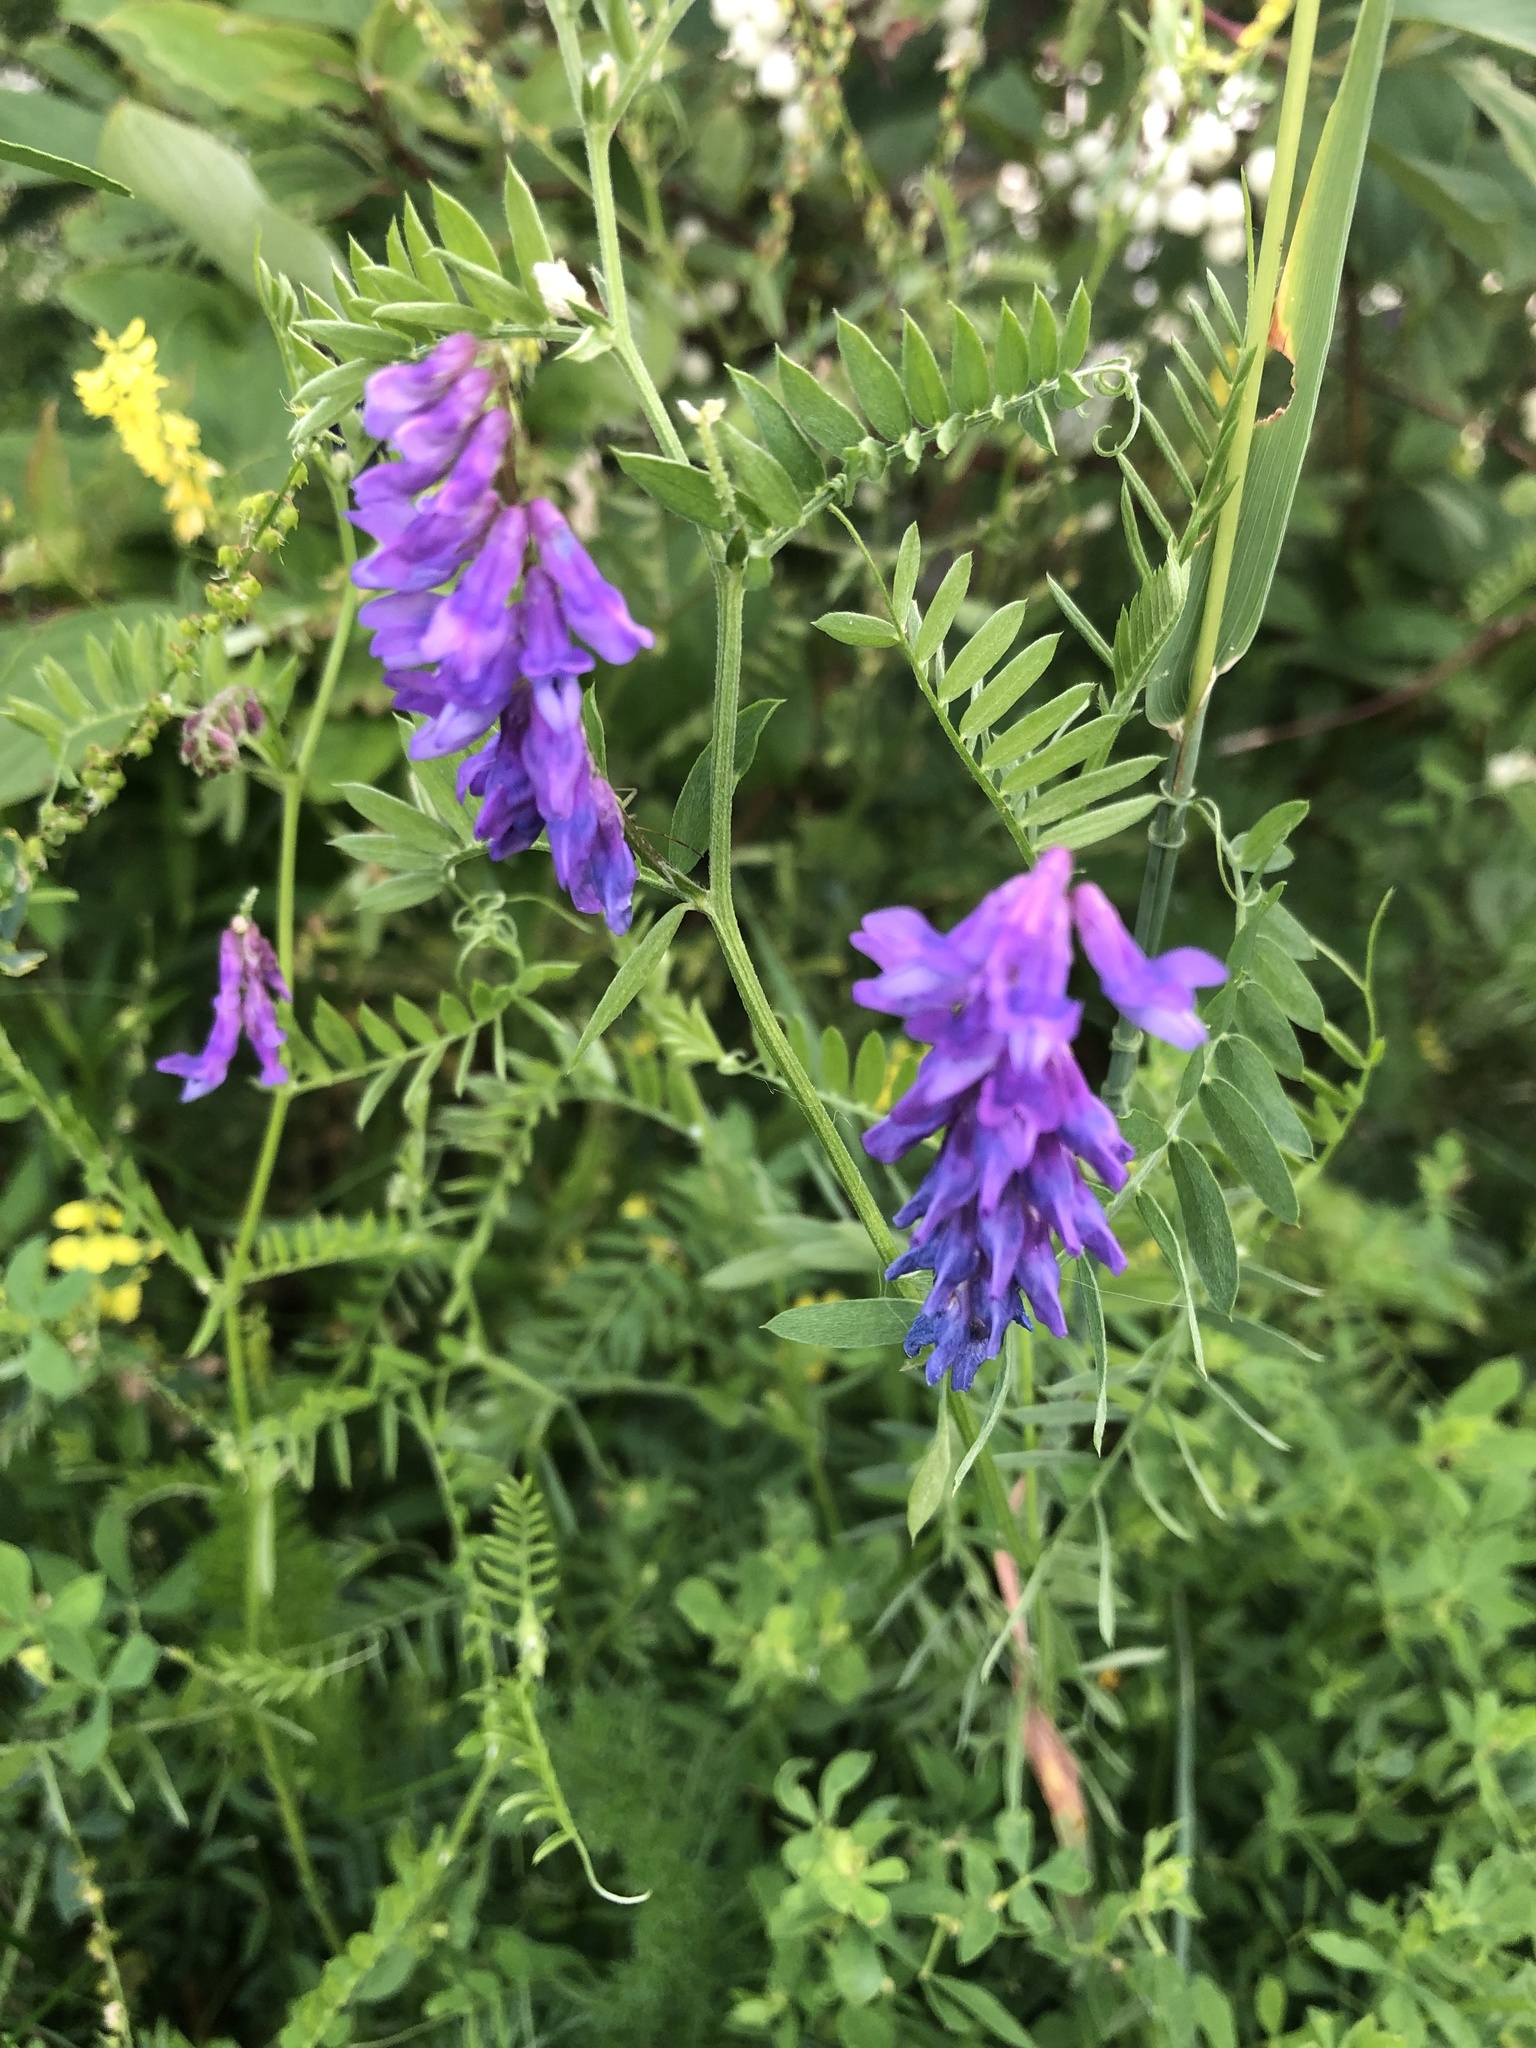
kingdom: Plantae
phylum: Tracheophyta
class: Magnoliopsida
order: Fabales
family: Fabaceae
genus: Vicia
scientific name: Vicia cracca
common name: Bird vetch
